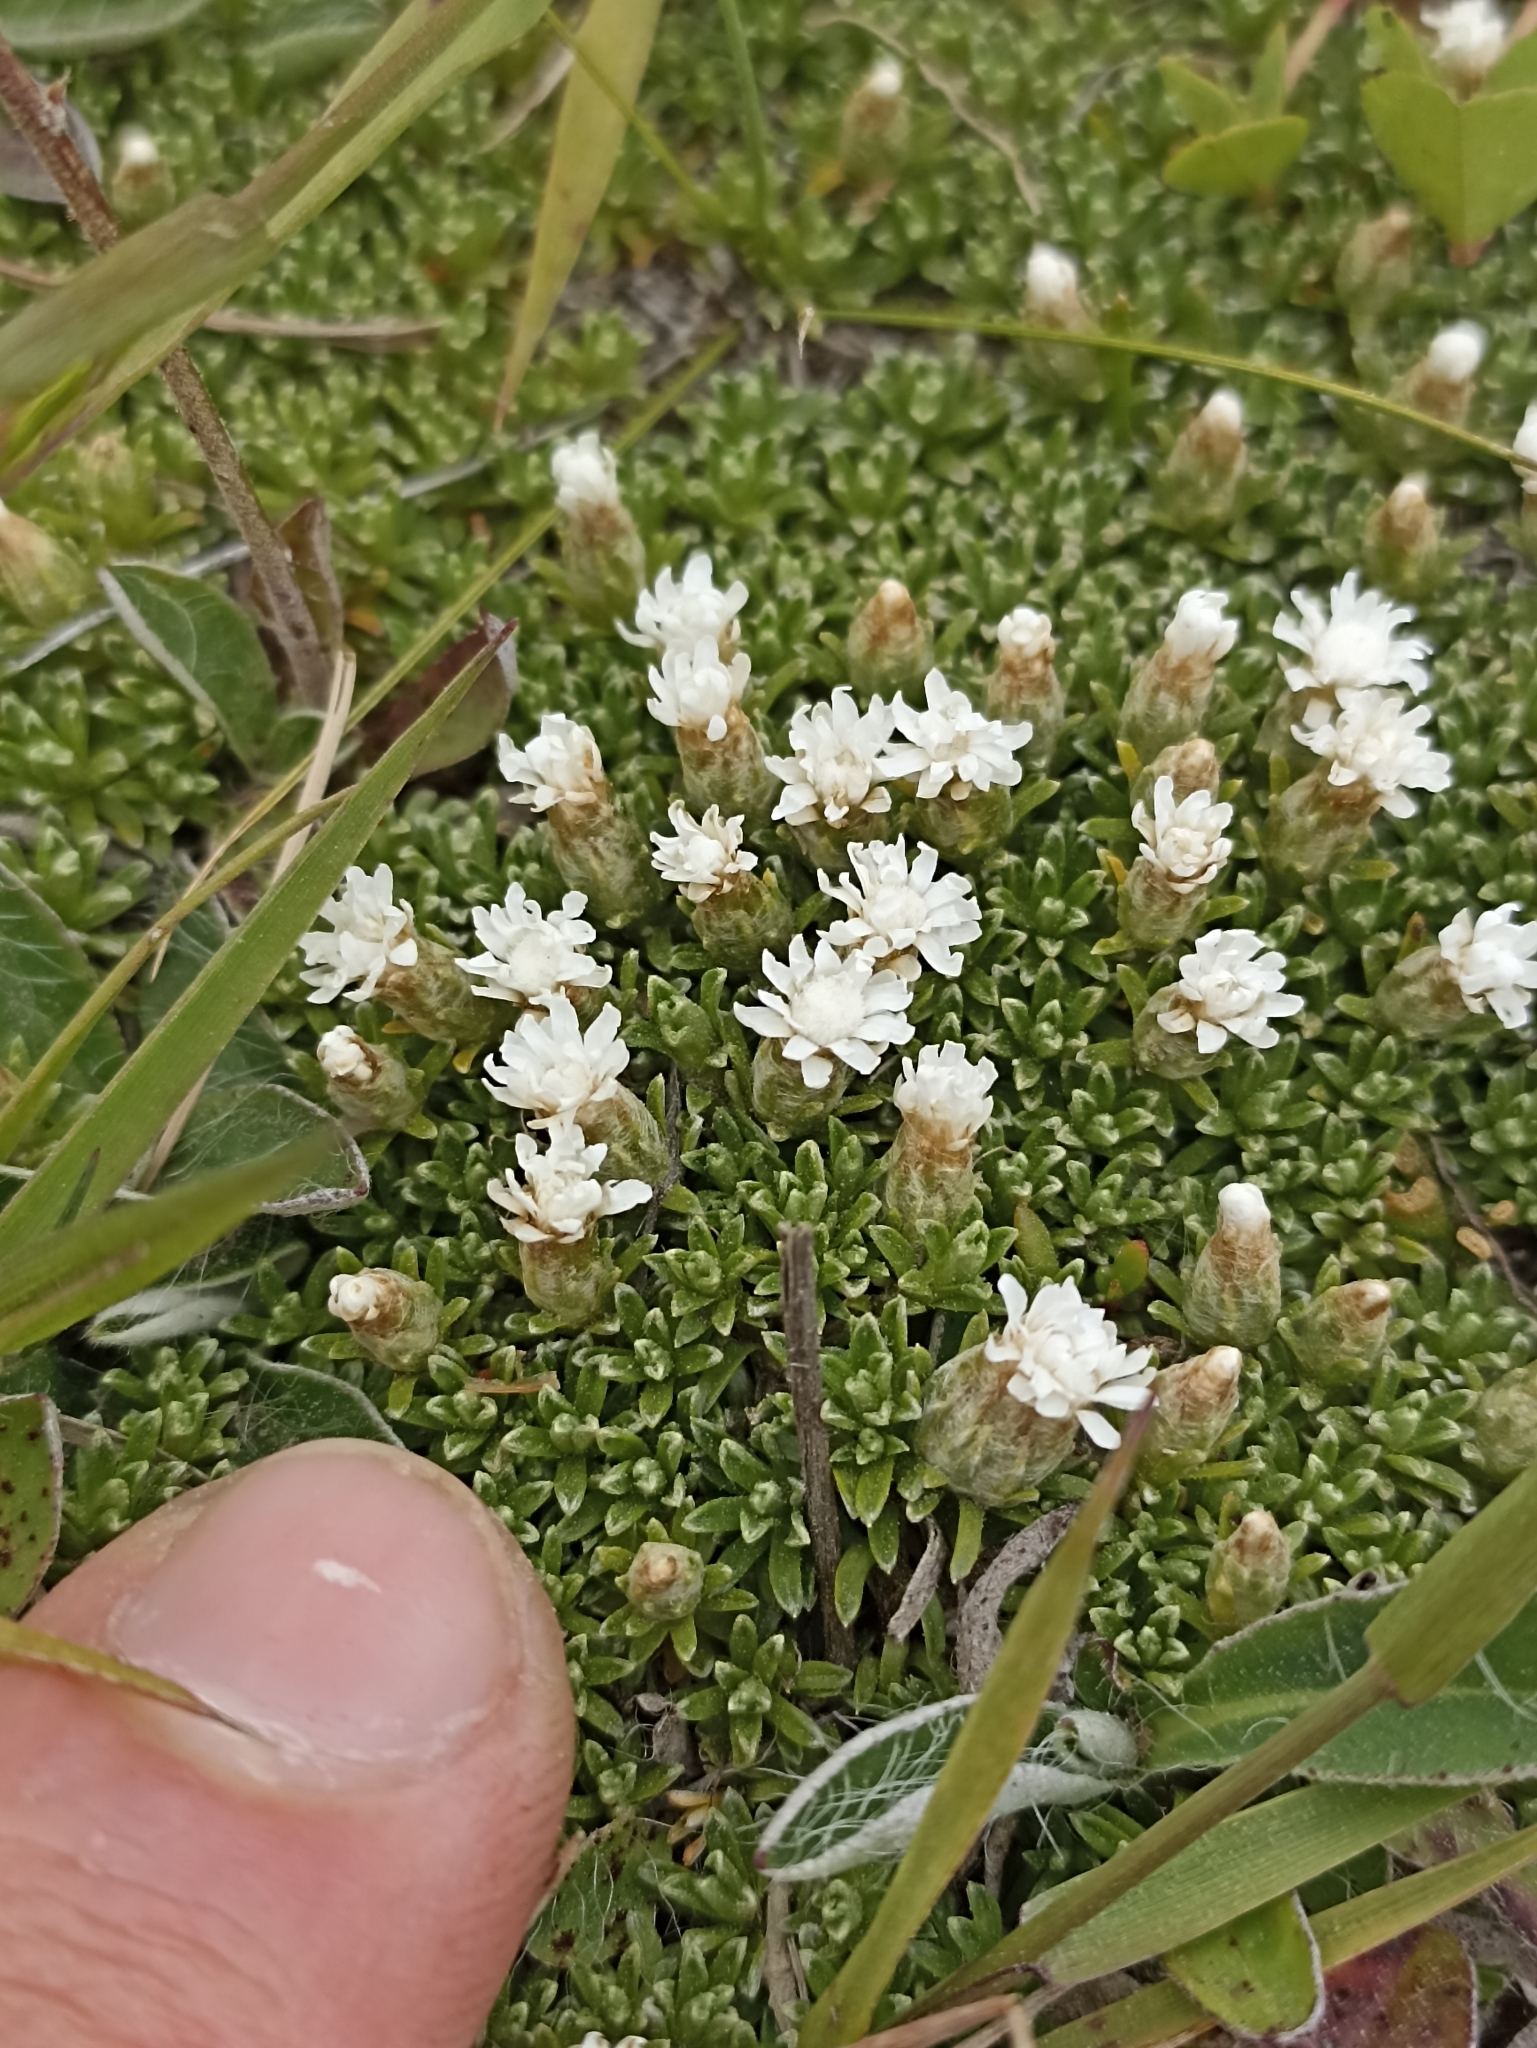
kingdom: Plantae
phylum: Tracheophyta
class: Magnoliopsida
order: Asterales
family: Asteraceae
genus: Raoulia
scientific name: Raoulia subsericea
